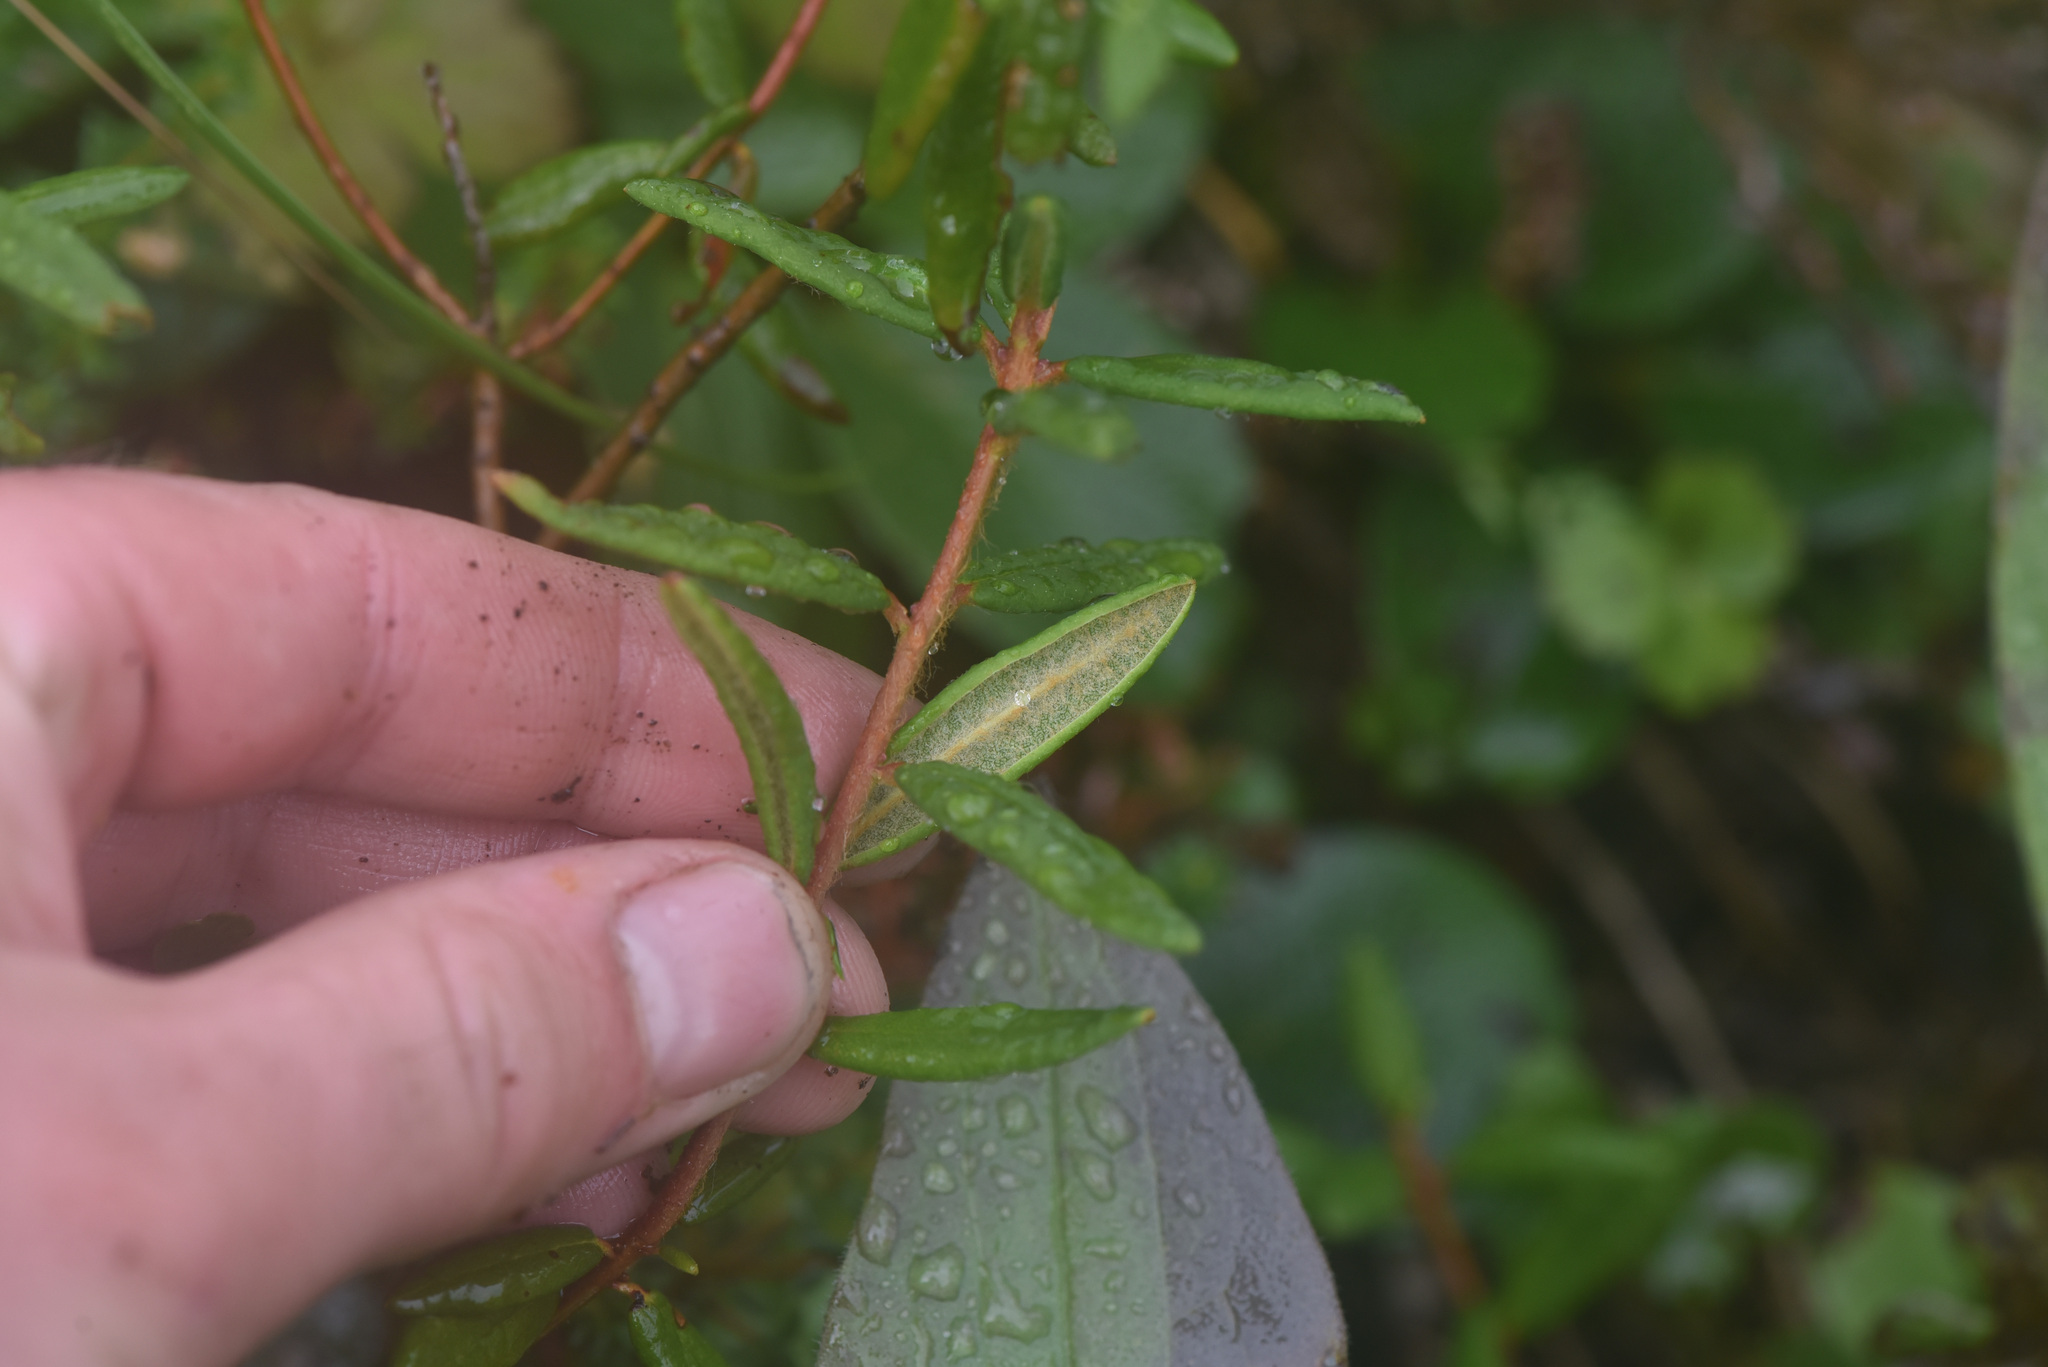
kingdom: Plantae
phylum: Tracheophyta
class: Magnoliopsida
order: Ericales
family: Ericaceae
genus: Rhododendron
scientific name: Rhododendron groenlandicum
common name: Bog labrador tea
